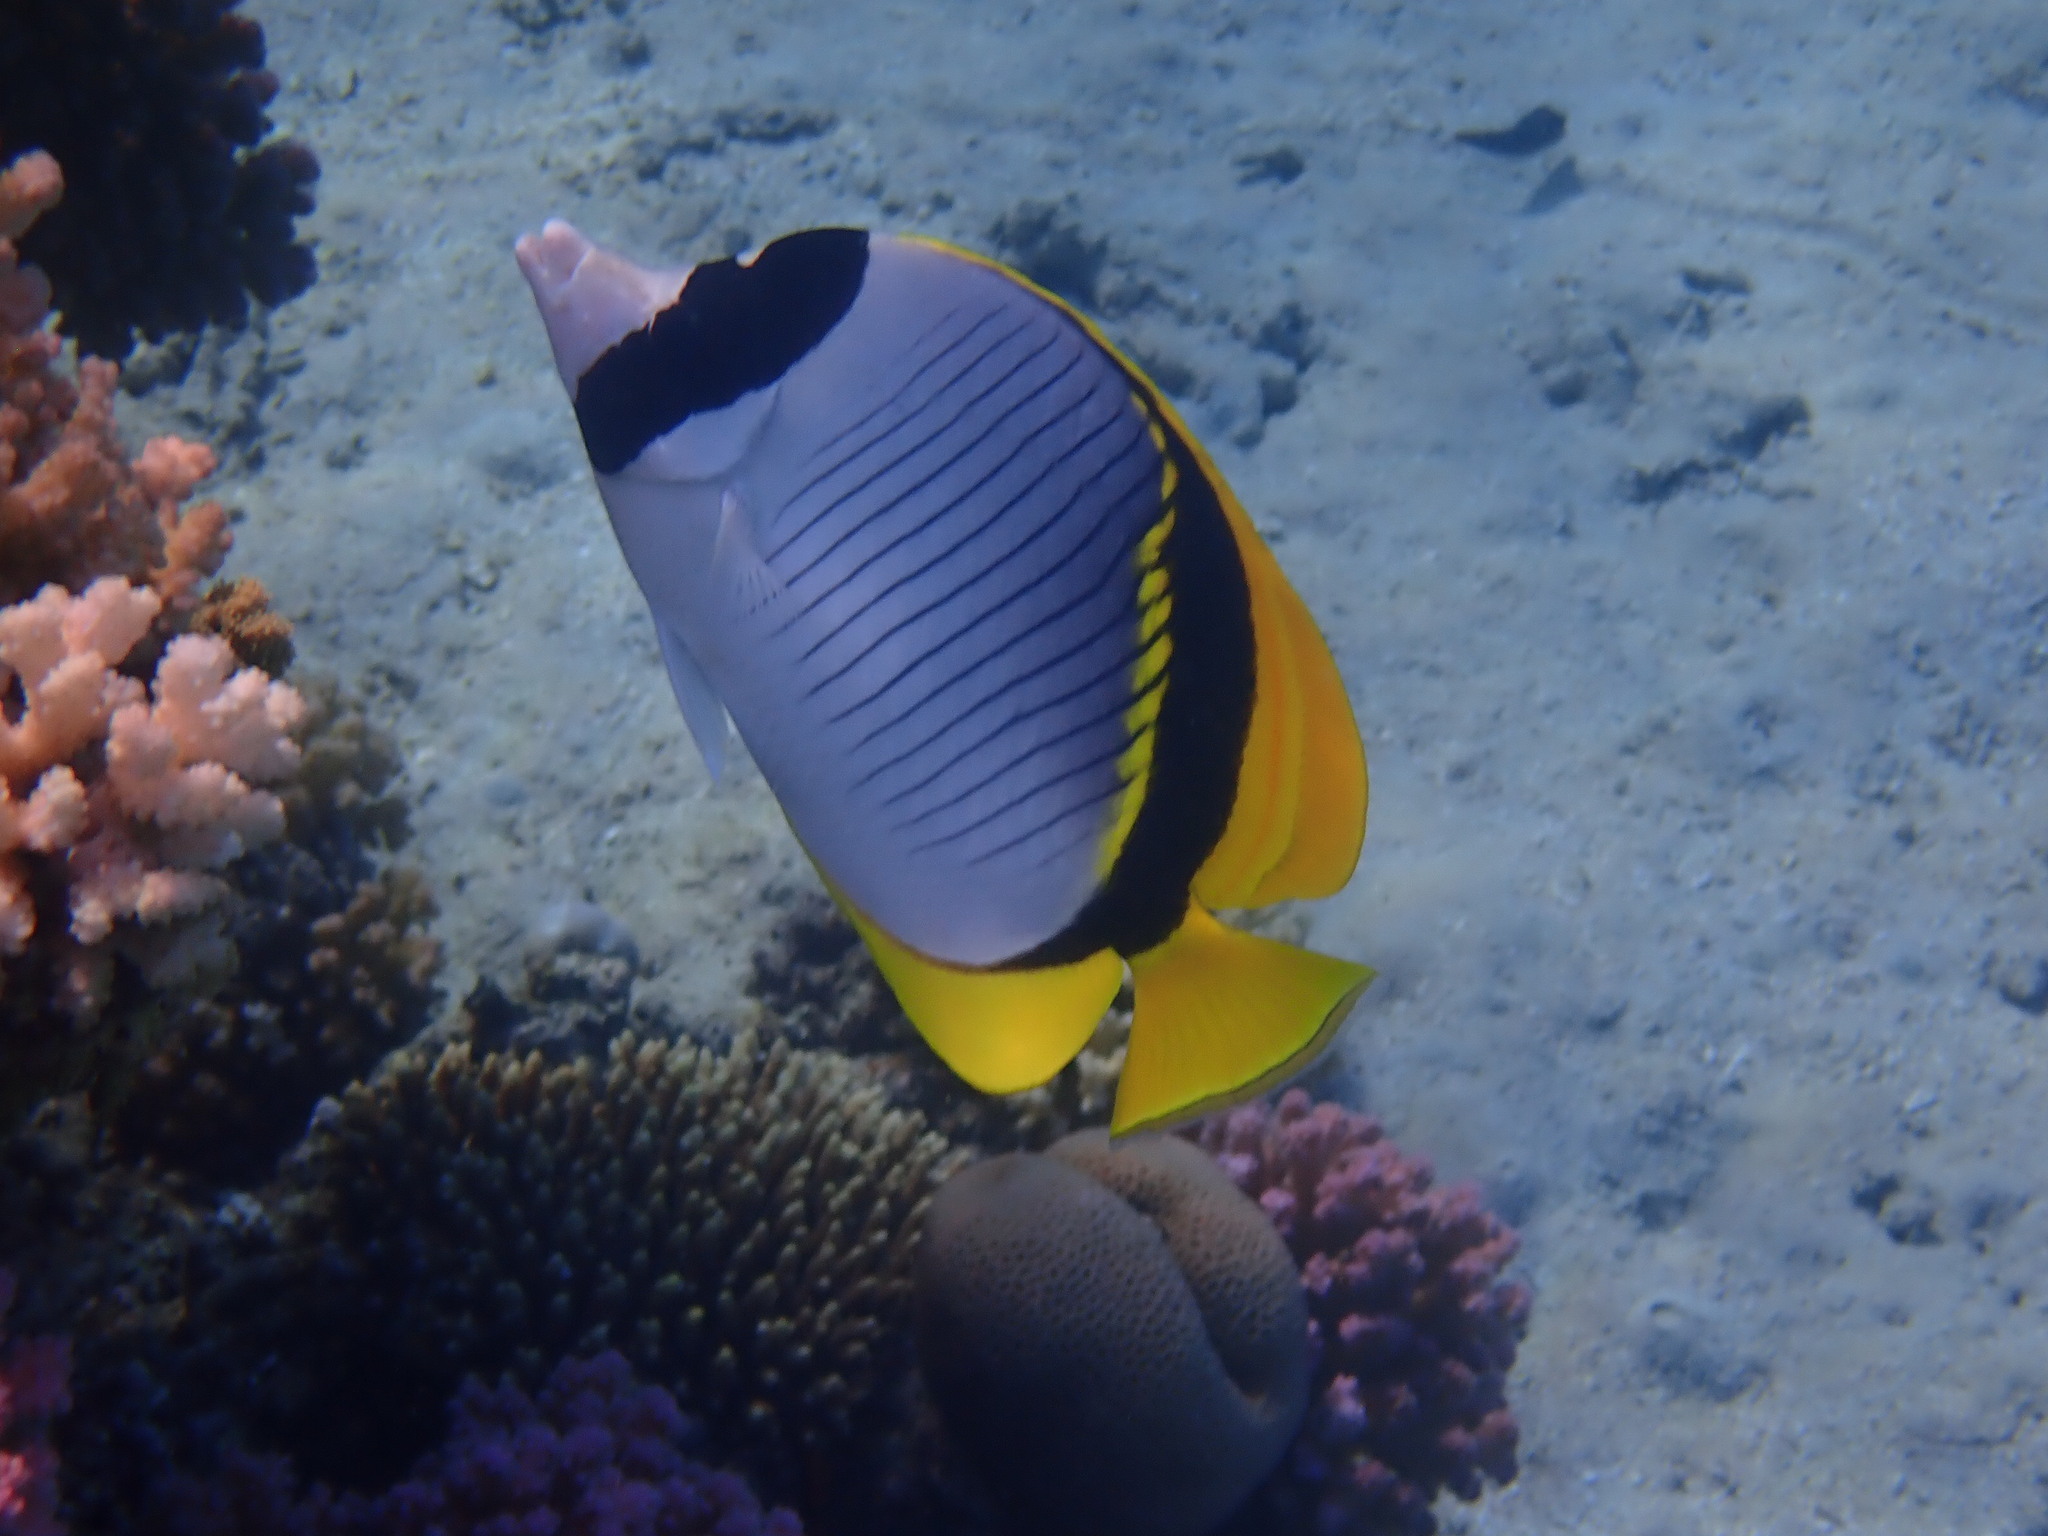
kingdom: Animalia
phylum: Chordata
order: Perciformes
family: Chaetodontidae
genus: Chaetodon
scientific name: Chaetodon lineolatus
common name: Lined butterflyfish
